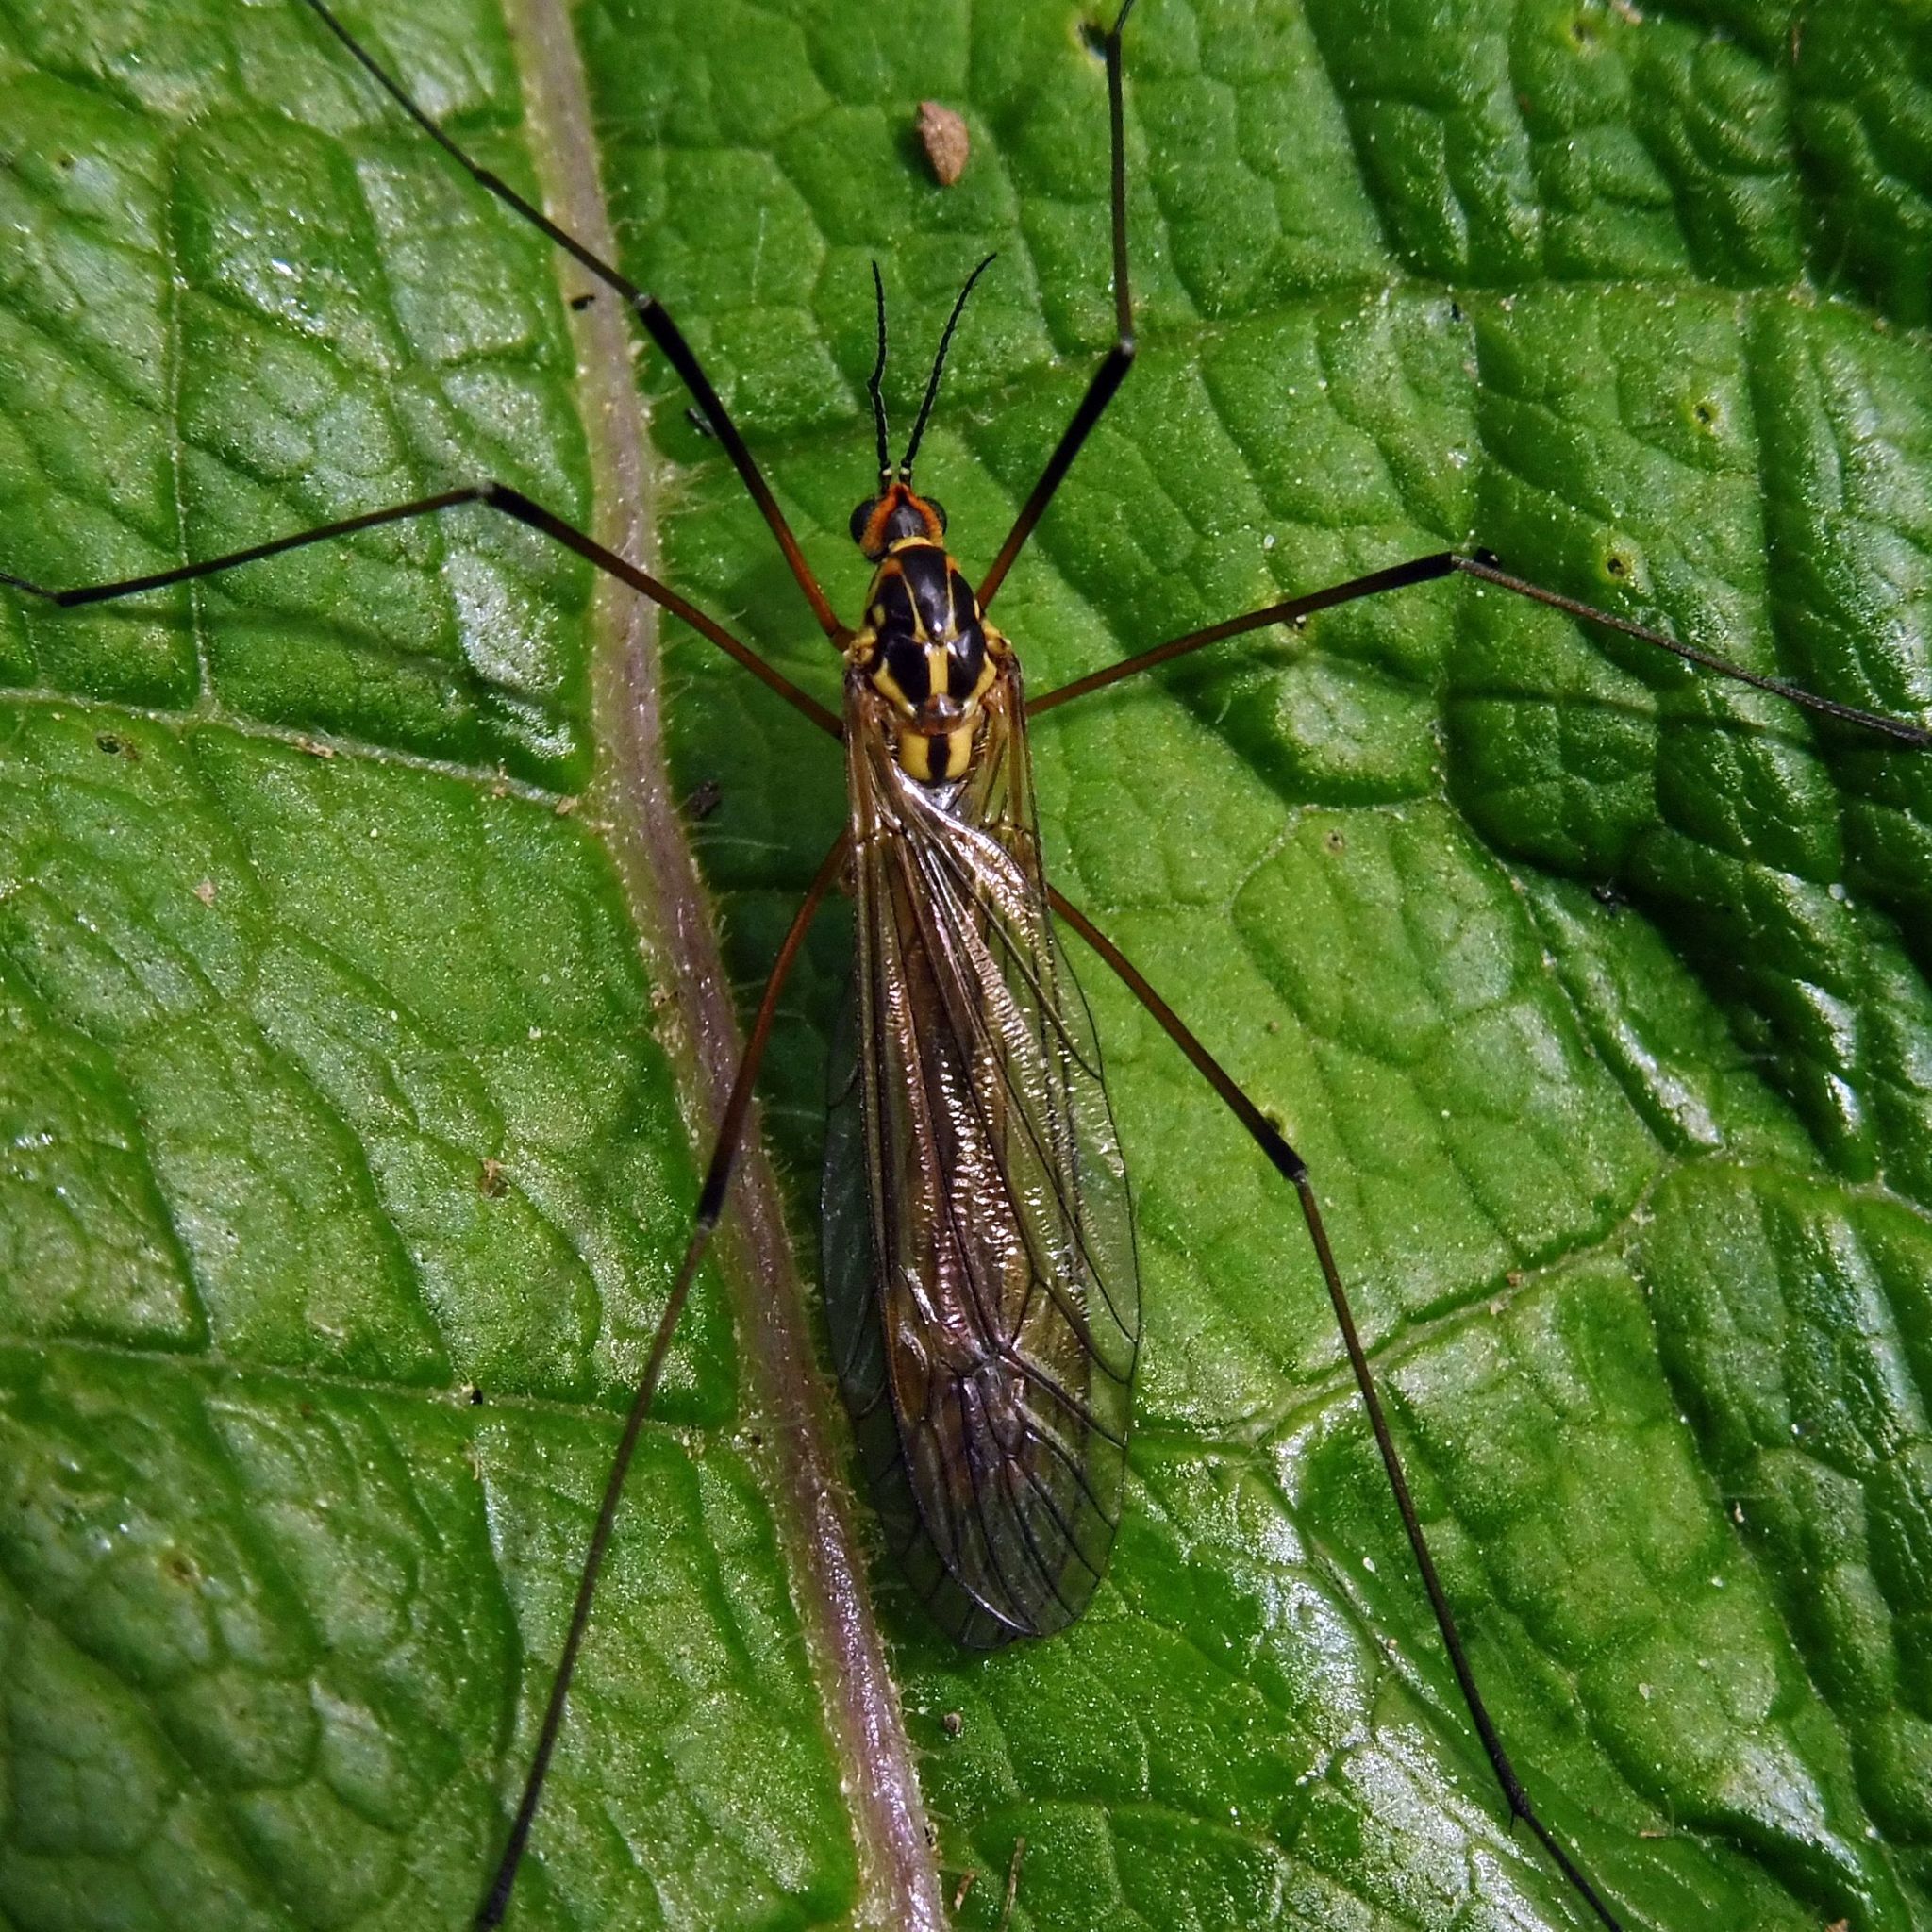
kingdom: Animalia
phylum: Arthropoda
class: Insecta
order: Diptera
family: Tipulidae
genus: Nephrotoma
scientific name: Nephrotoma appendiculata
